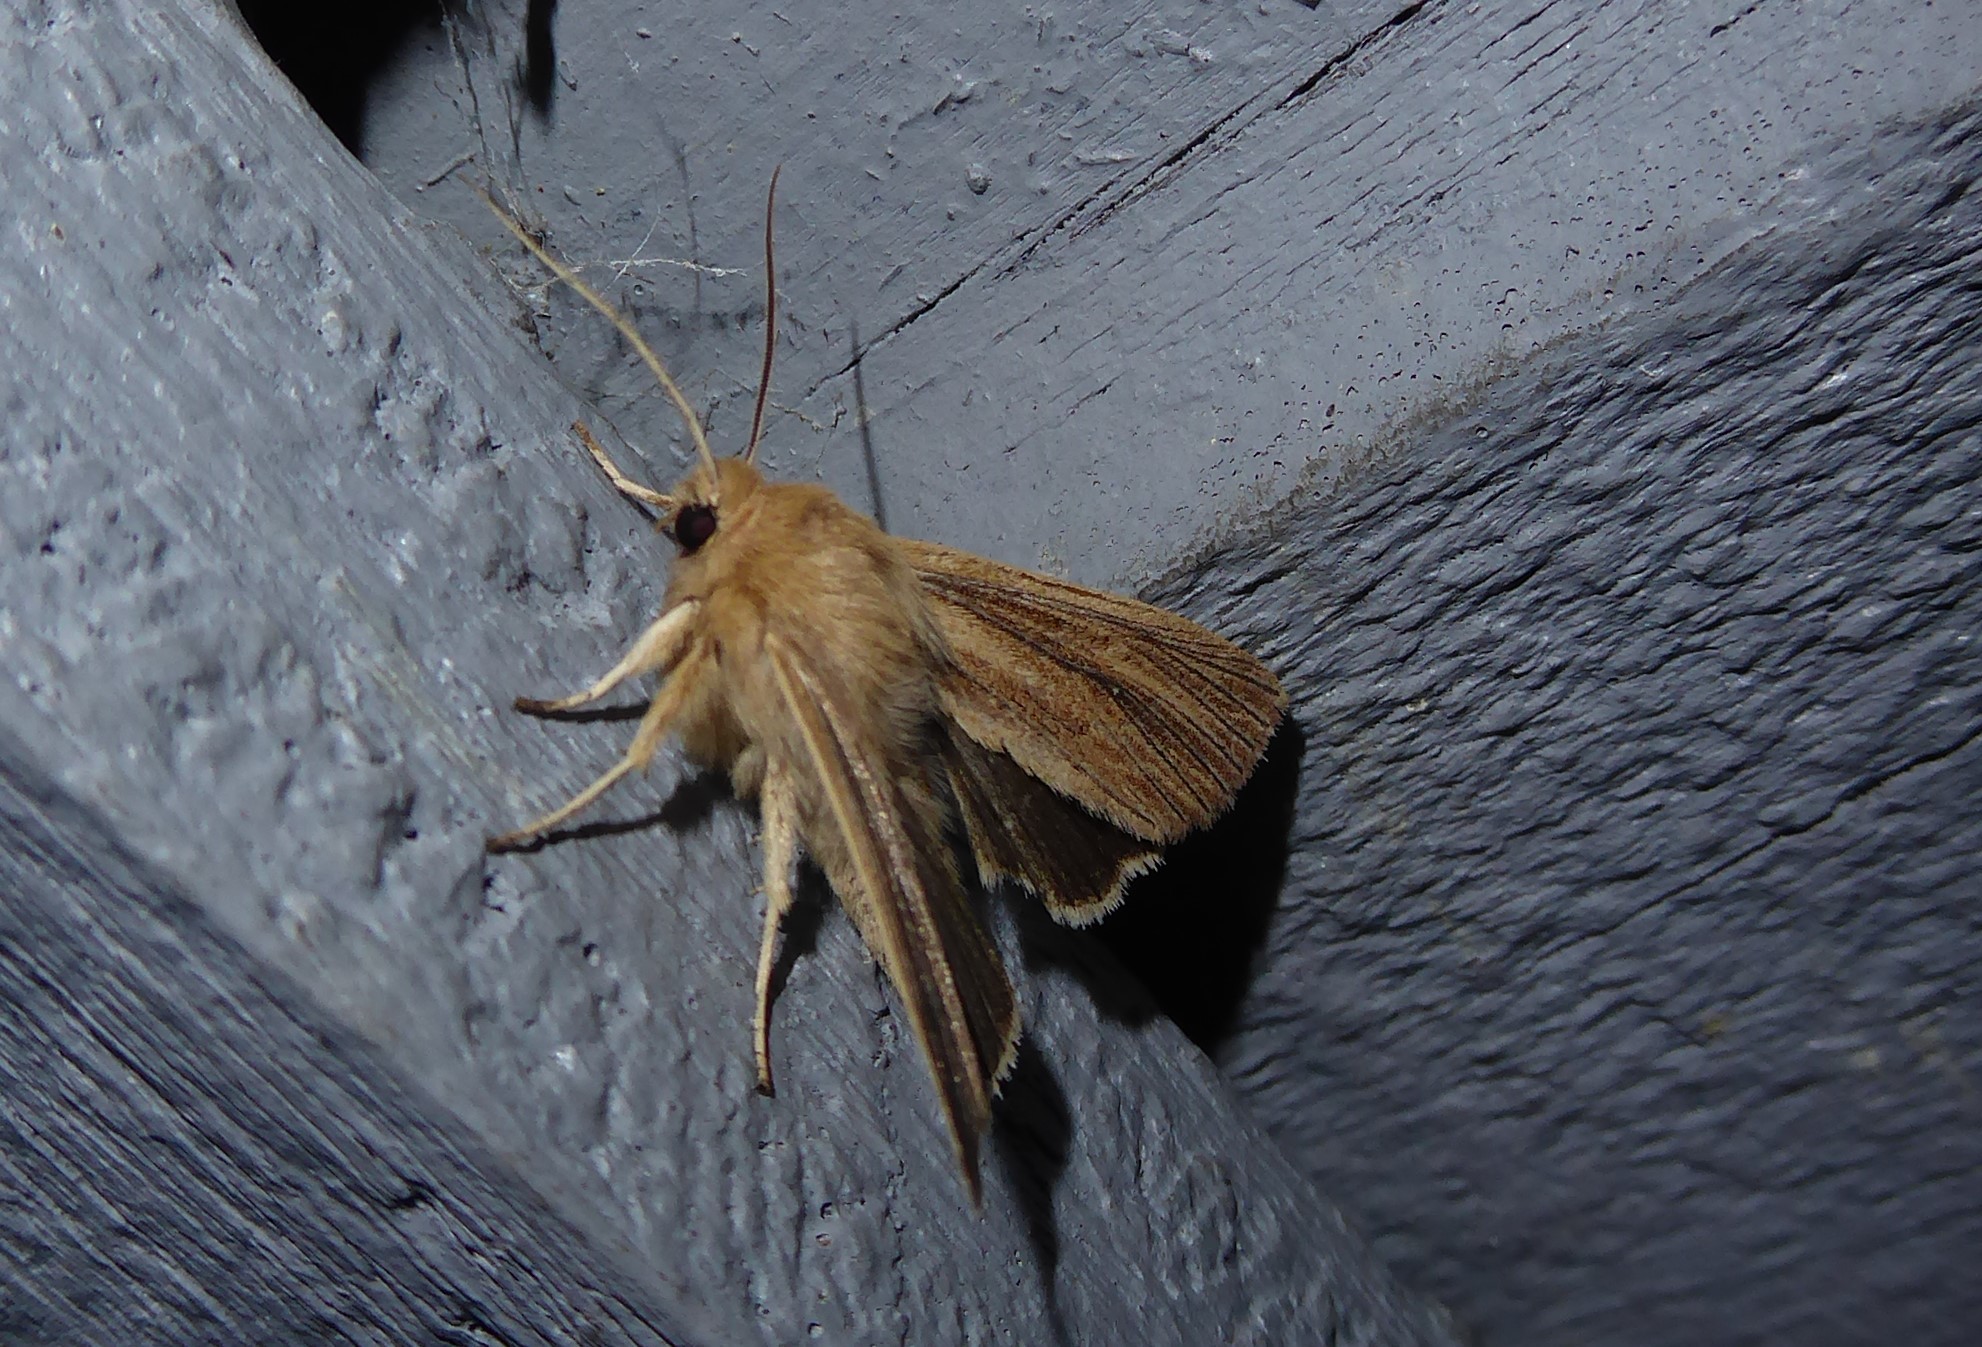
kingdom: Animalia
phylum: Arthropoda
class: Insecta
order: Lepidoptera
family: Noctuidae
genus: Ichneutica
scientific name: Ichneutica arotis
